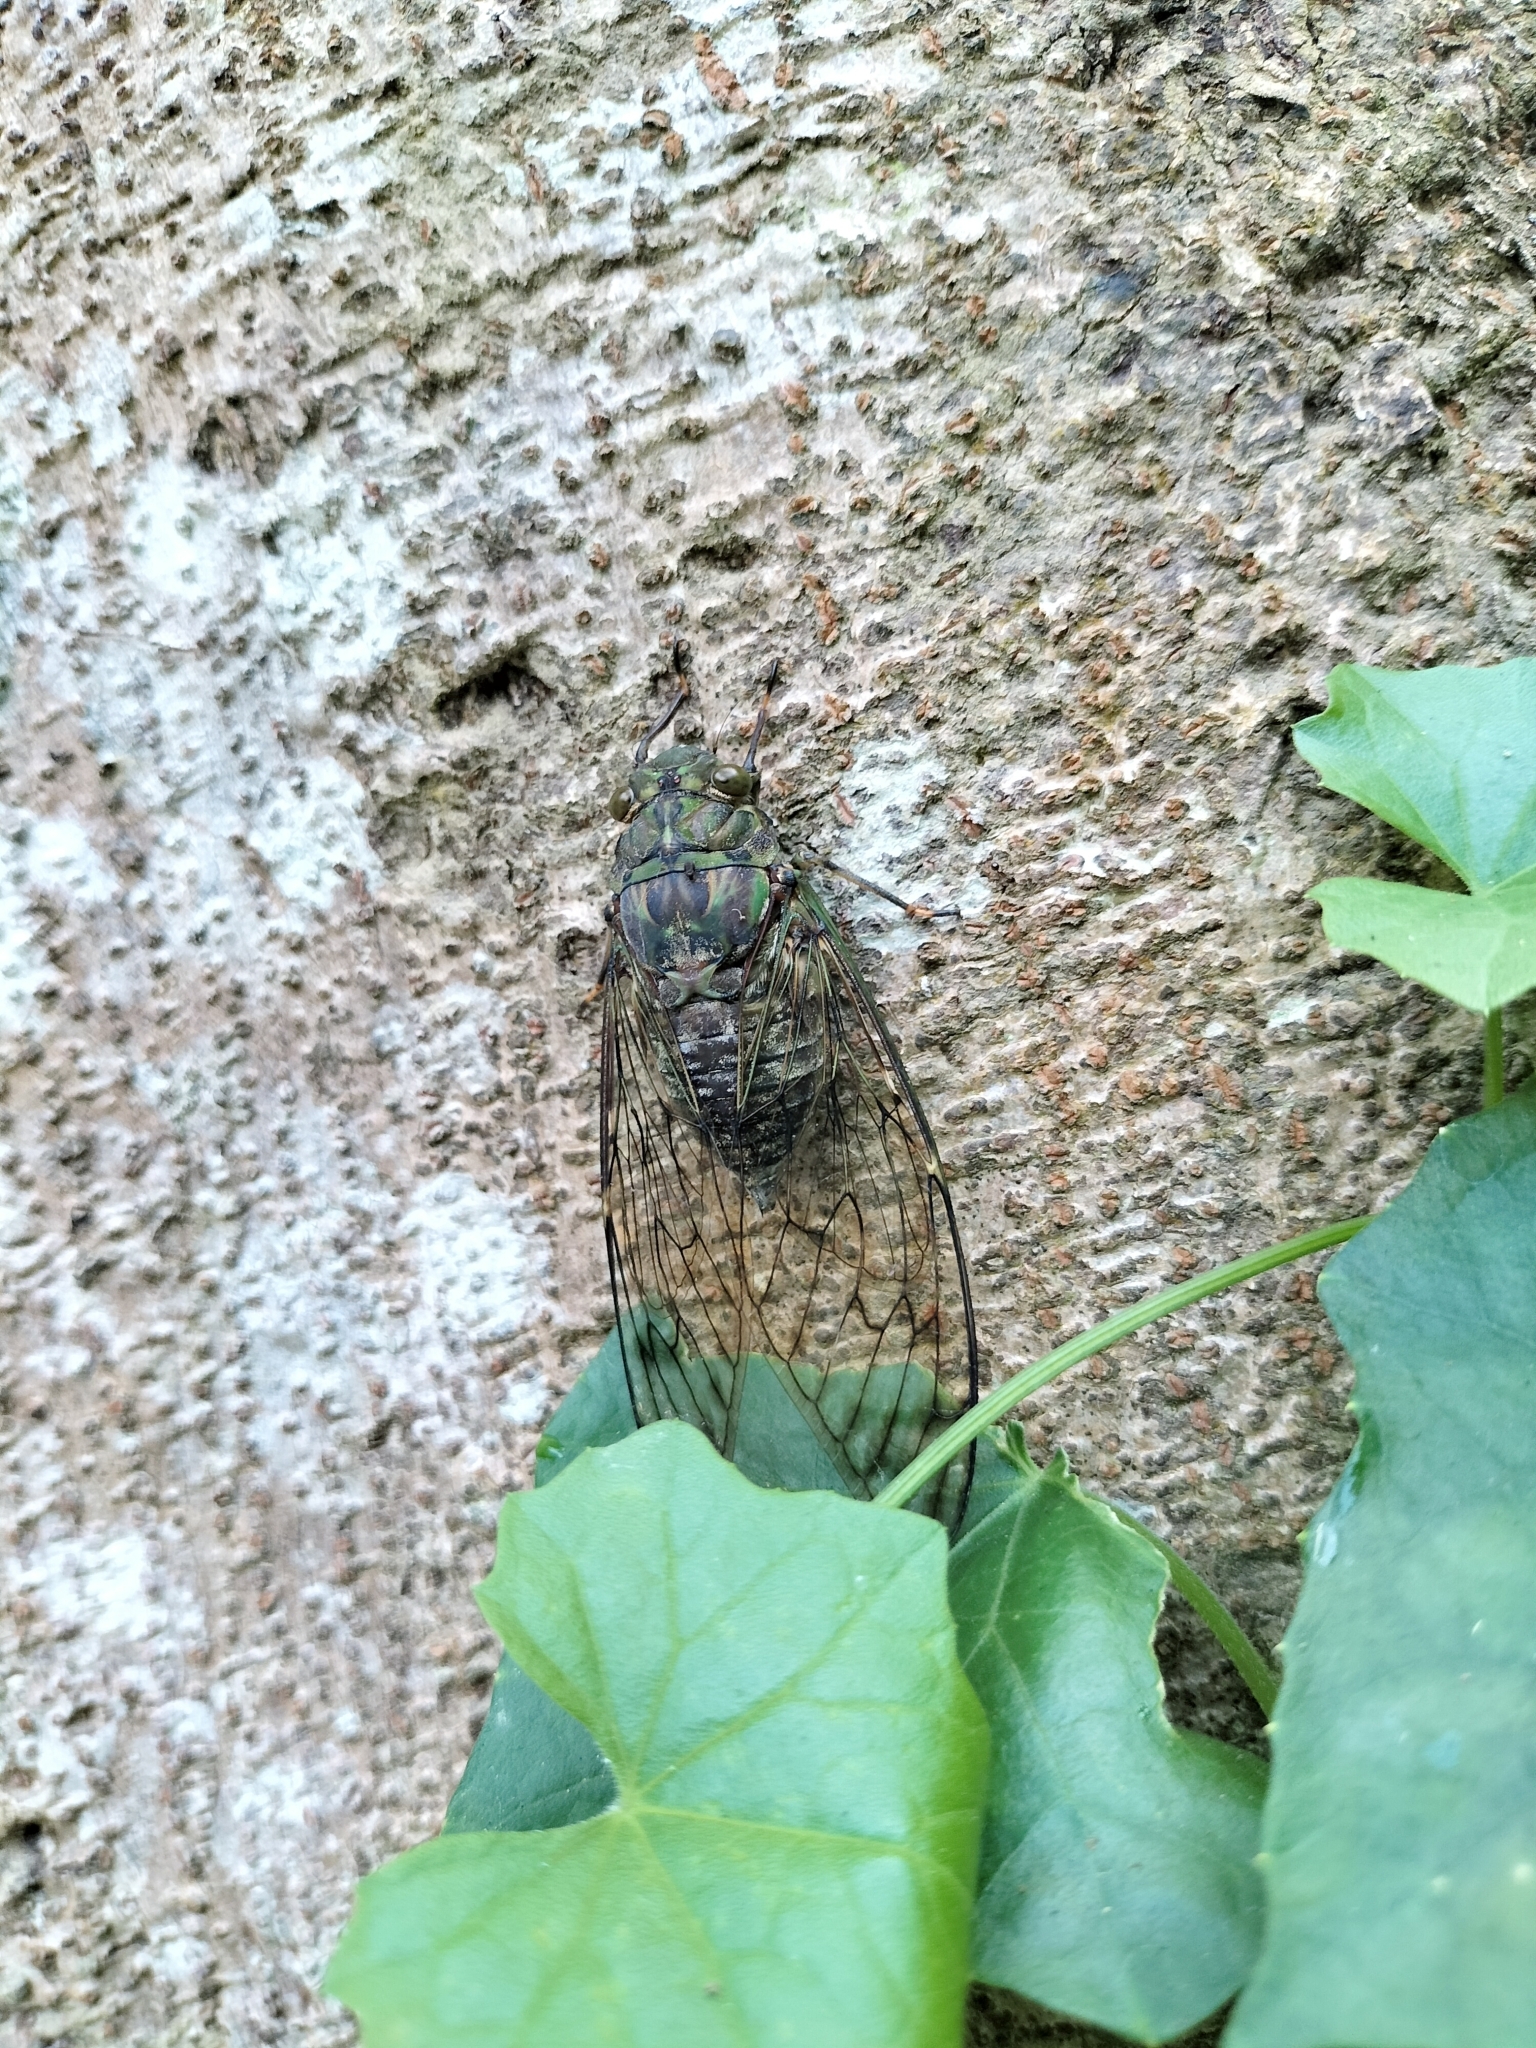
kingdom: Animalia
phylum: Arthropoda
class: Insecta
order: Hemiptera
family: Cicadidae
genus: Pomponia
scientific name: Pomponia yayeyamana
